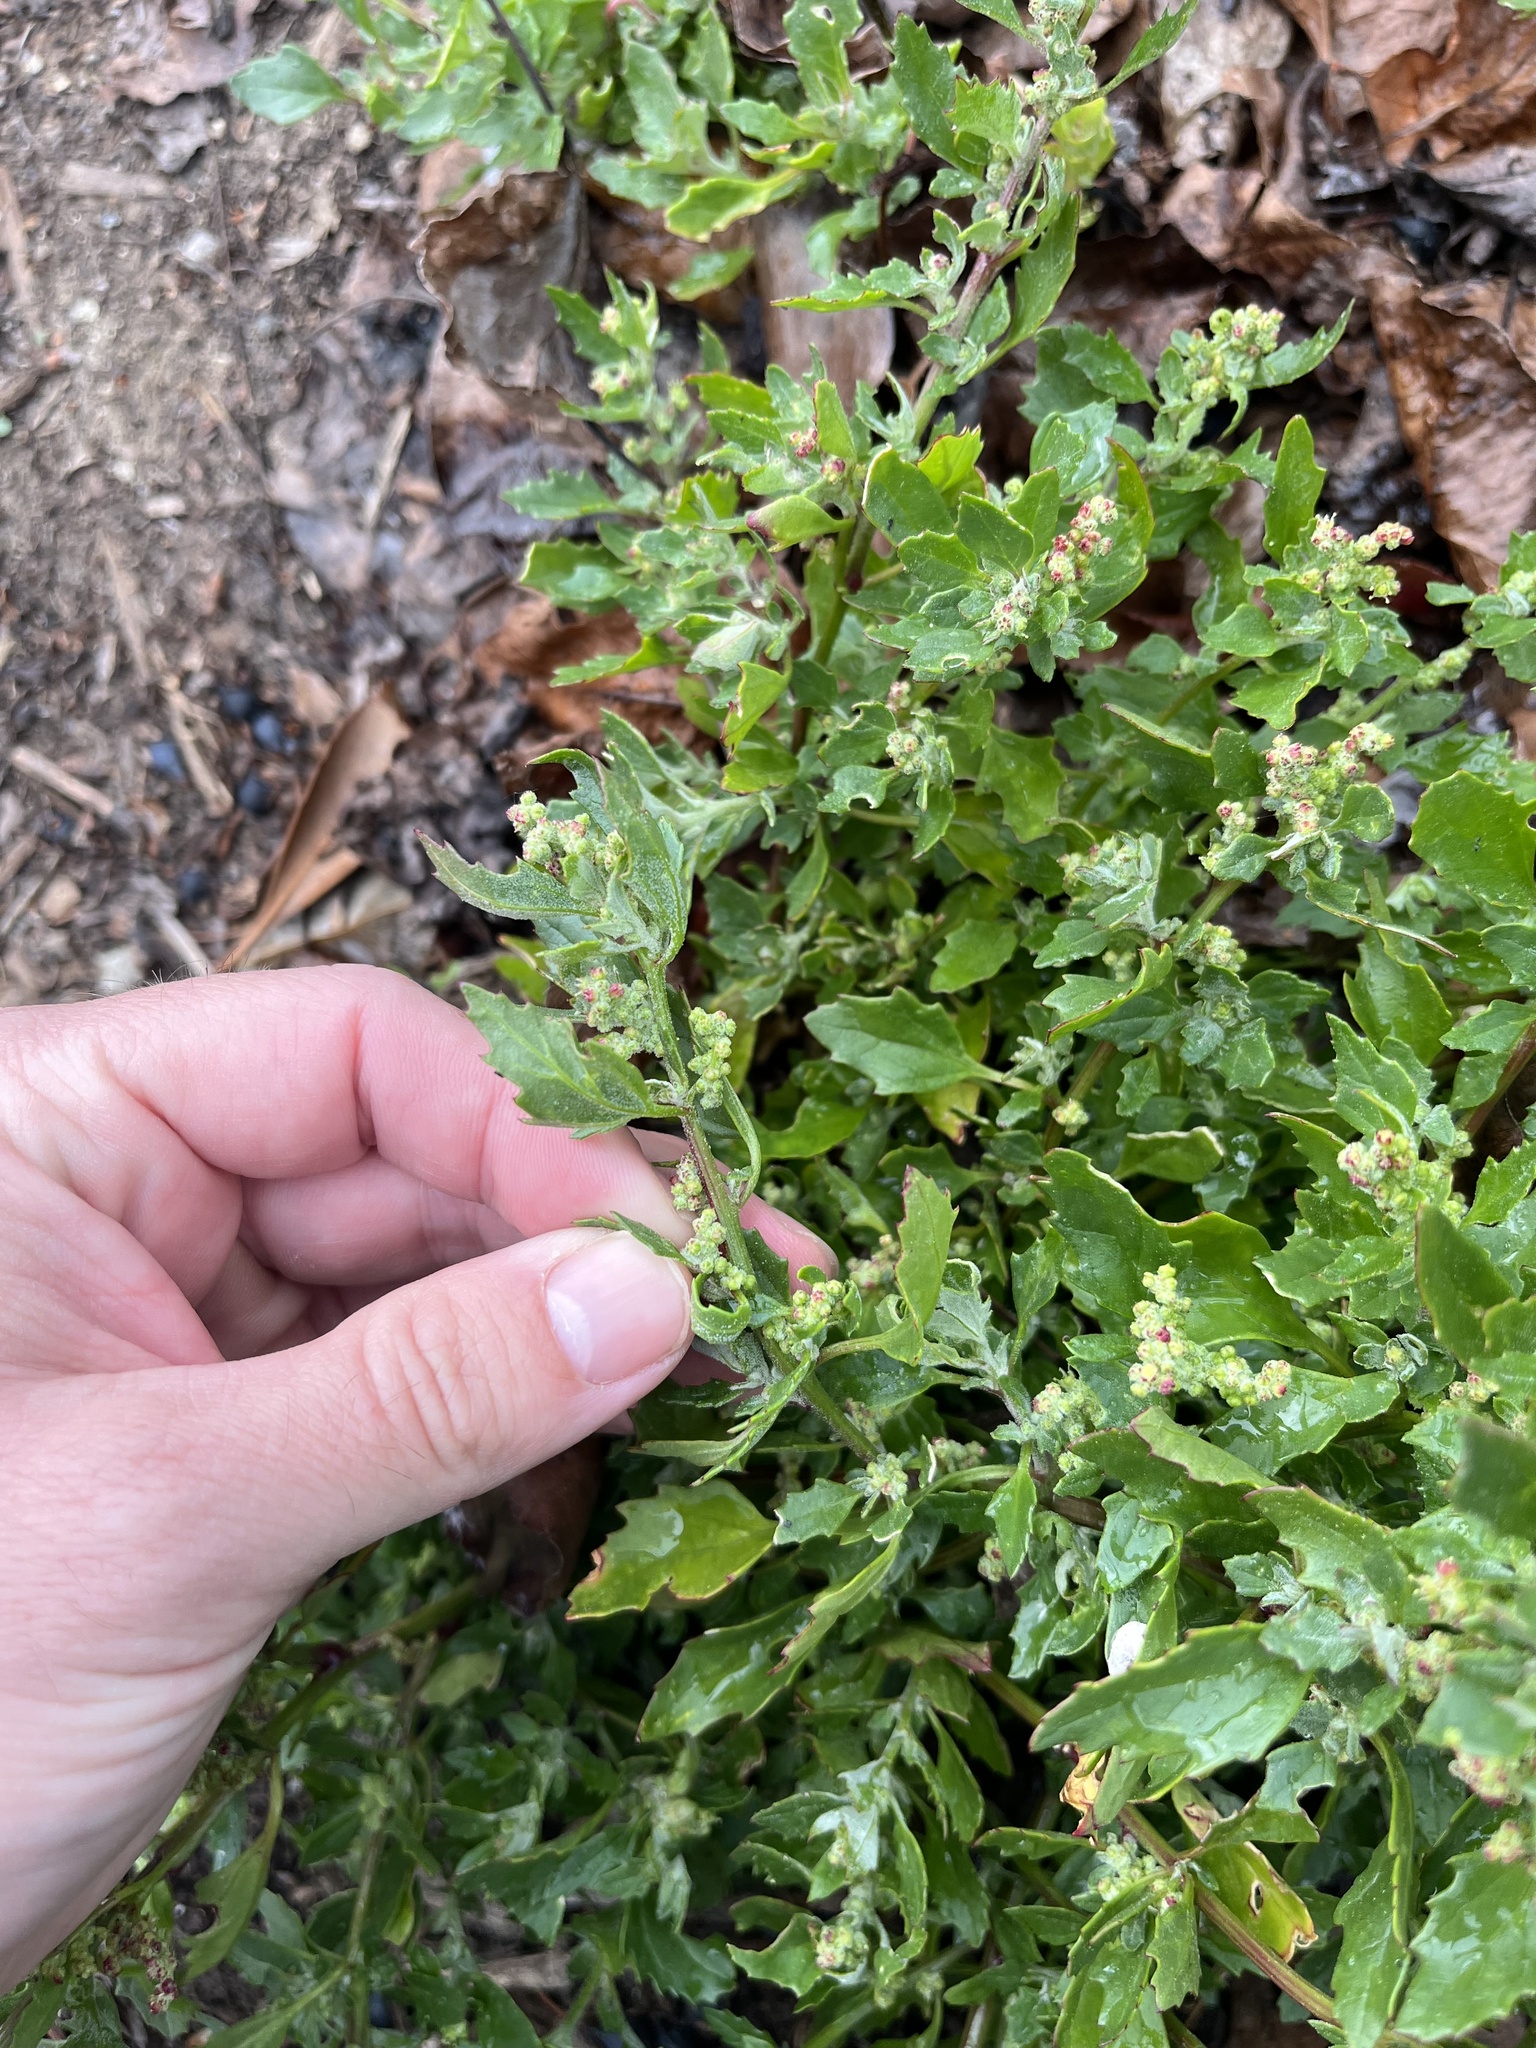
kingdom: Plantae
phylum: Tracheophyta
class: Magnoliopsida
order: Caryophyllales
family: Amaranthaceae
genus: Chenopodiastrum
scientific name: Chenopodiastrum murale
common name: Sowbane
